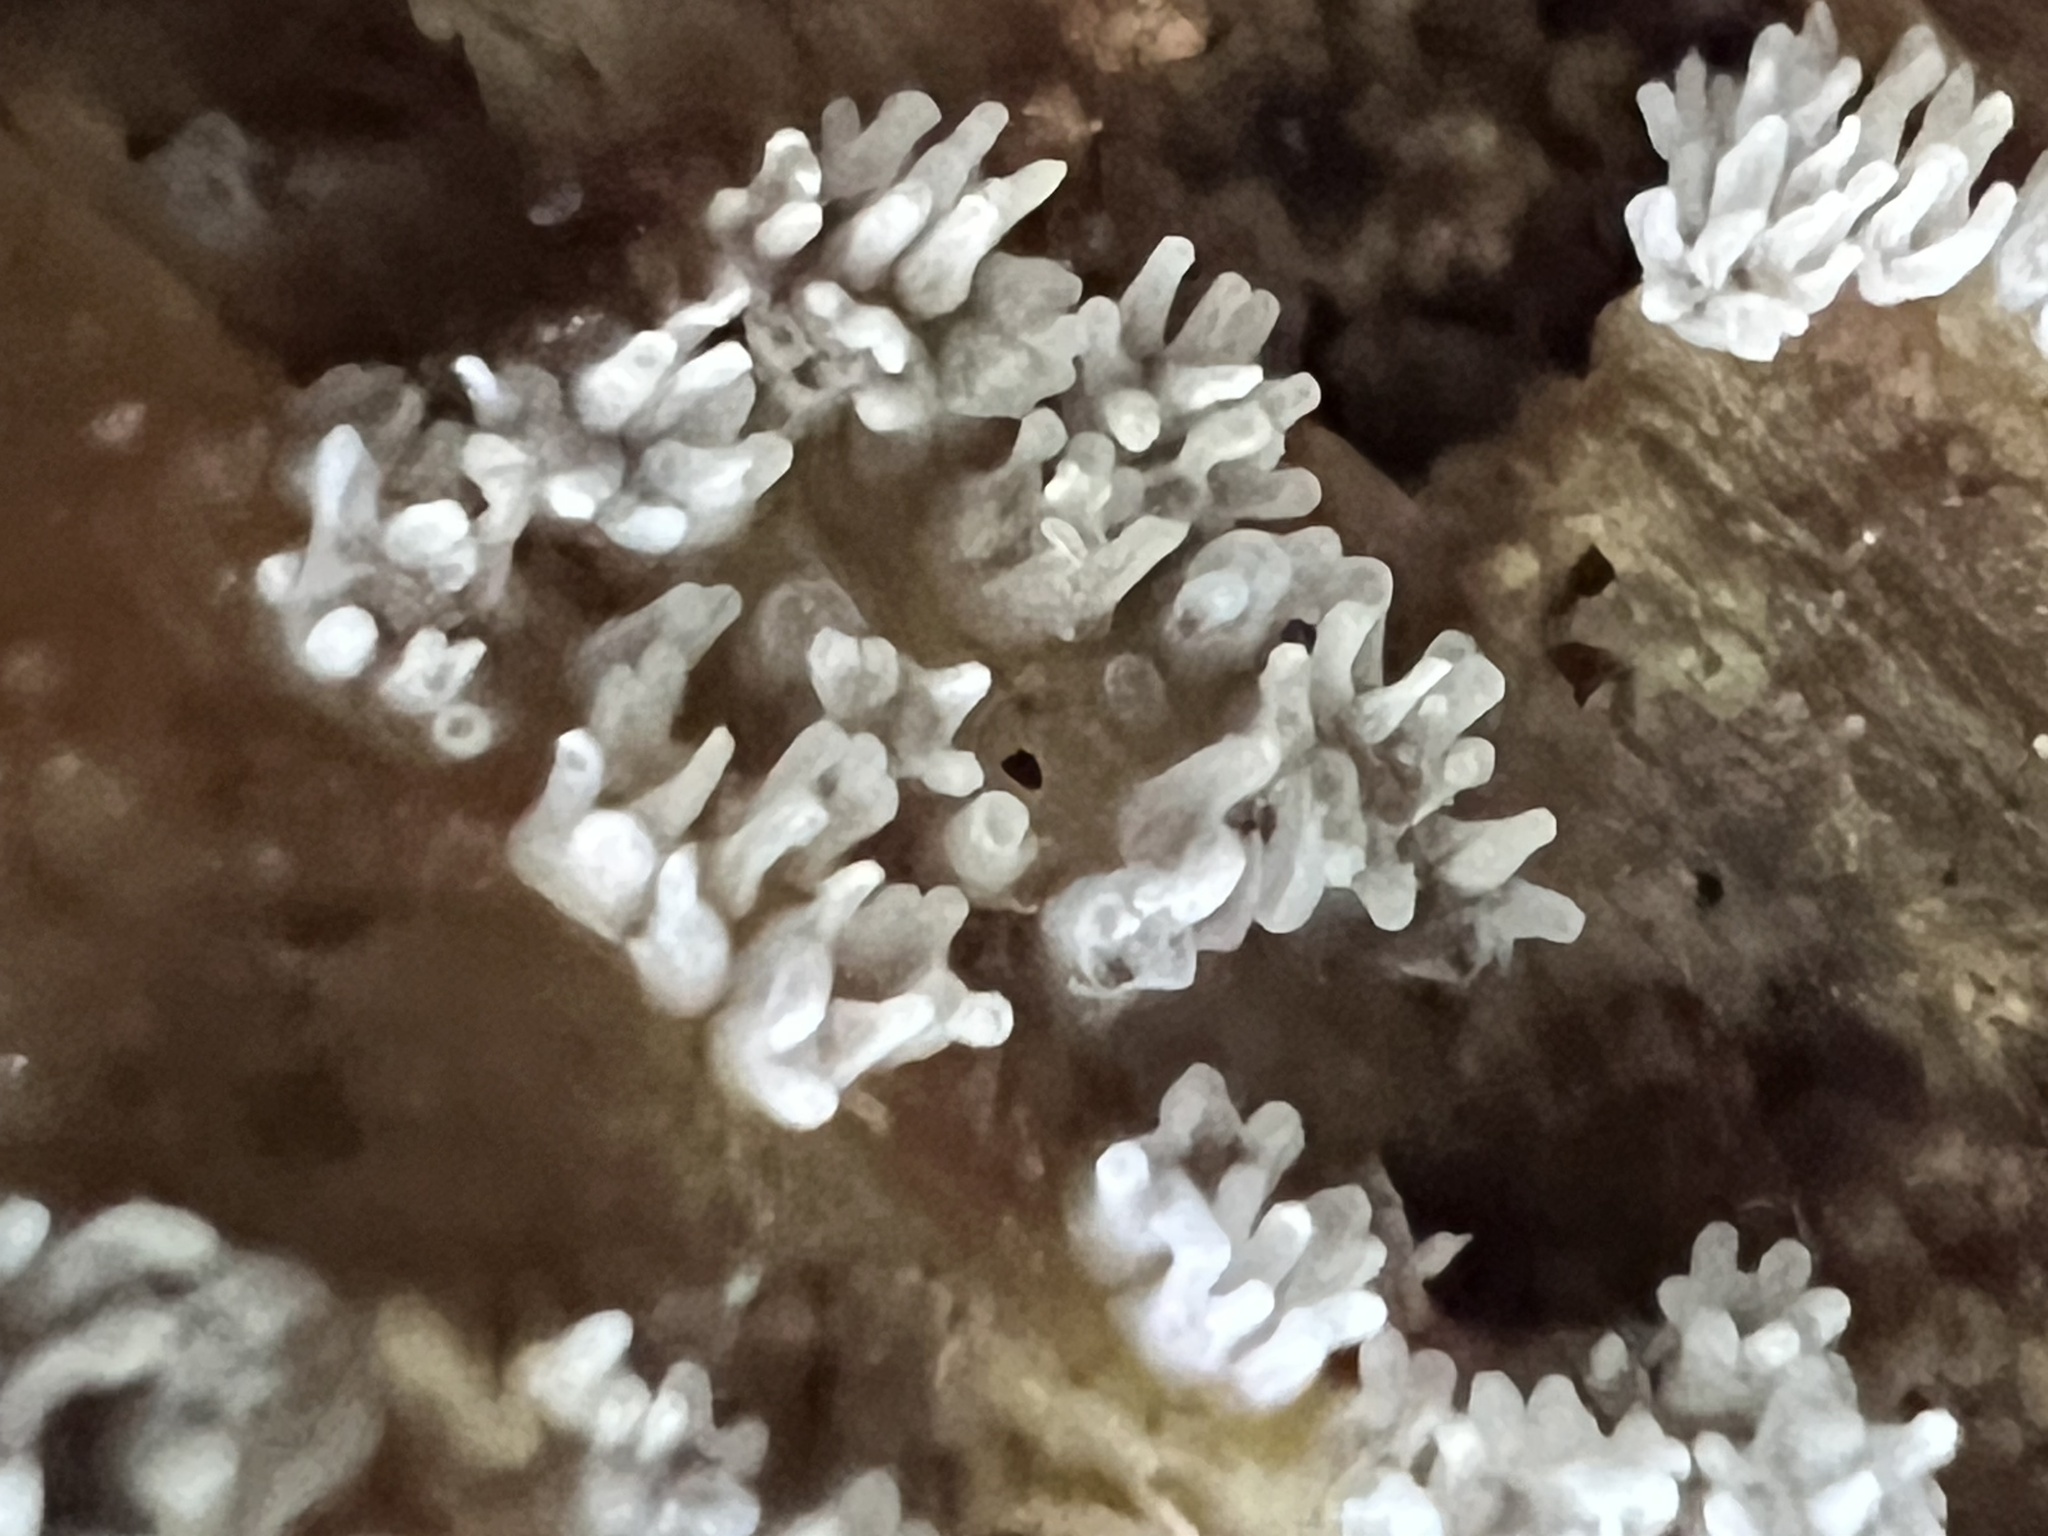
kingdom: Protozoa
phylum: Mycetozoa
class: Protosteliomycetes
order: Ceratiomyxales
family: Ceratiomyxaceae
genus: Ceratiomyxa
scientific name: Ceratiomyxa fruticulosa
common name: Honeycomb coral slime mold
